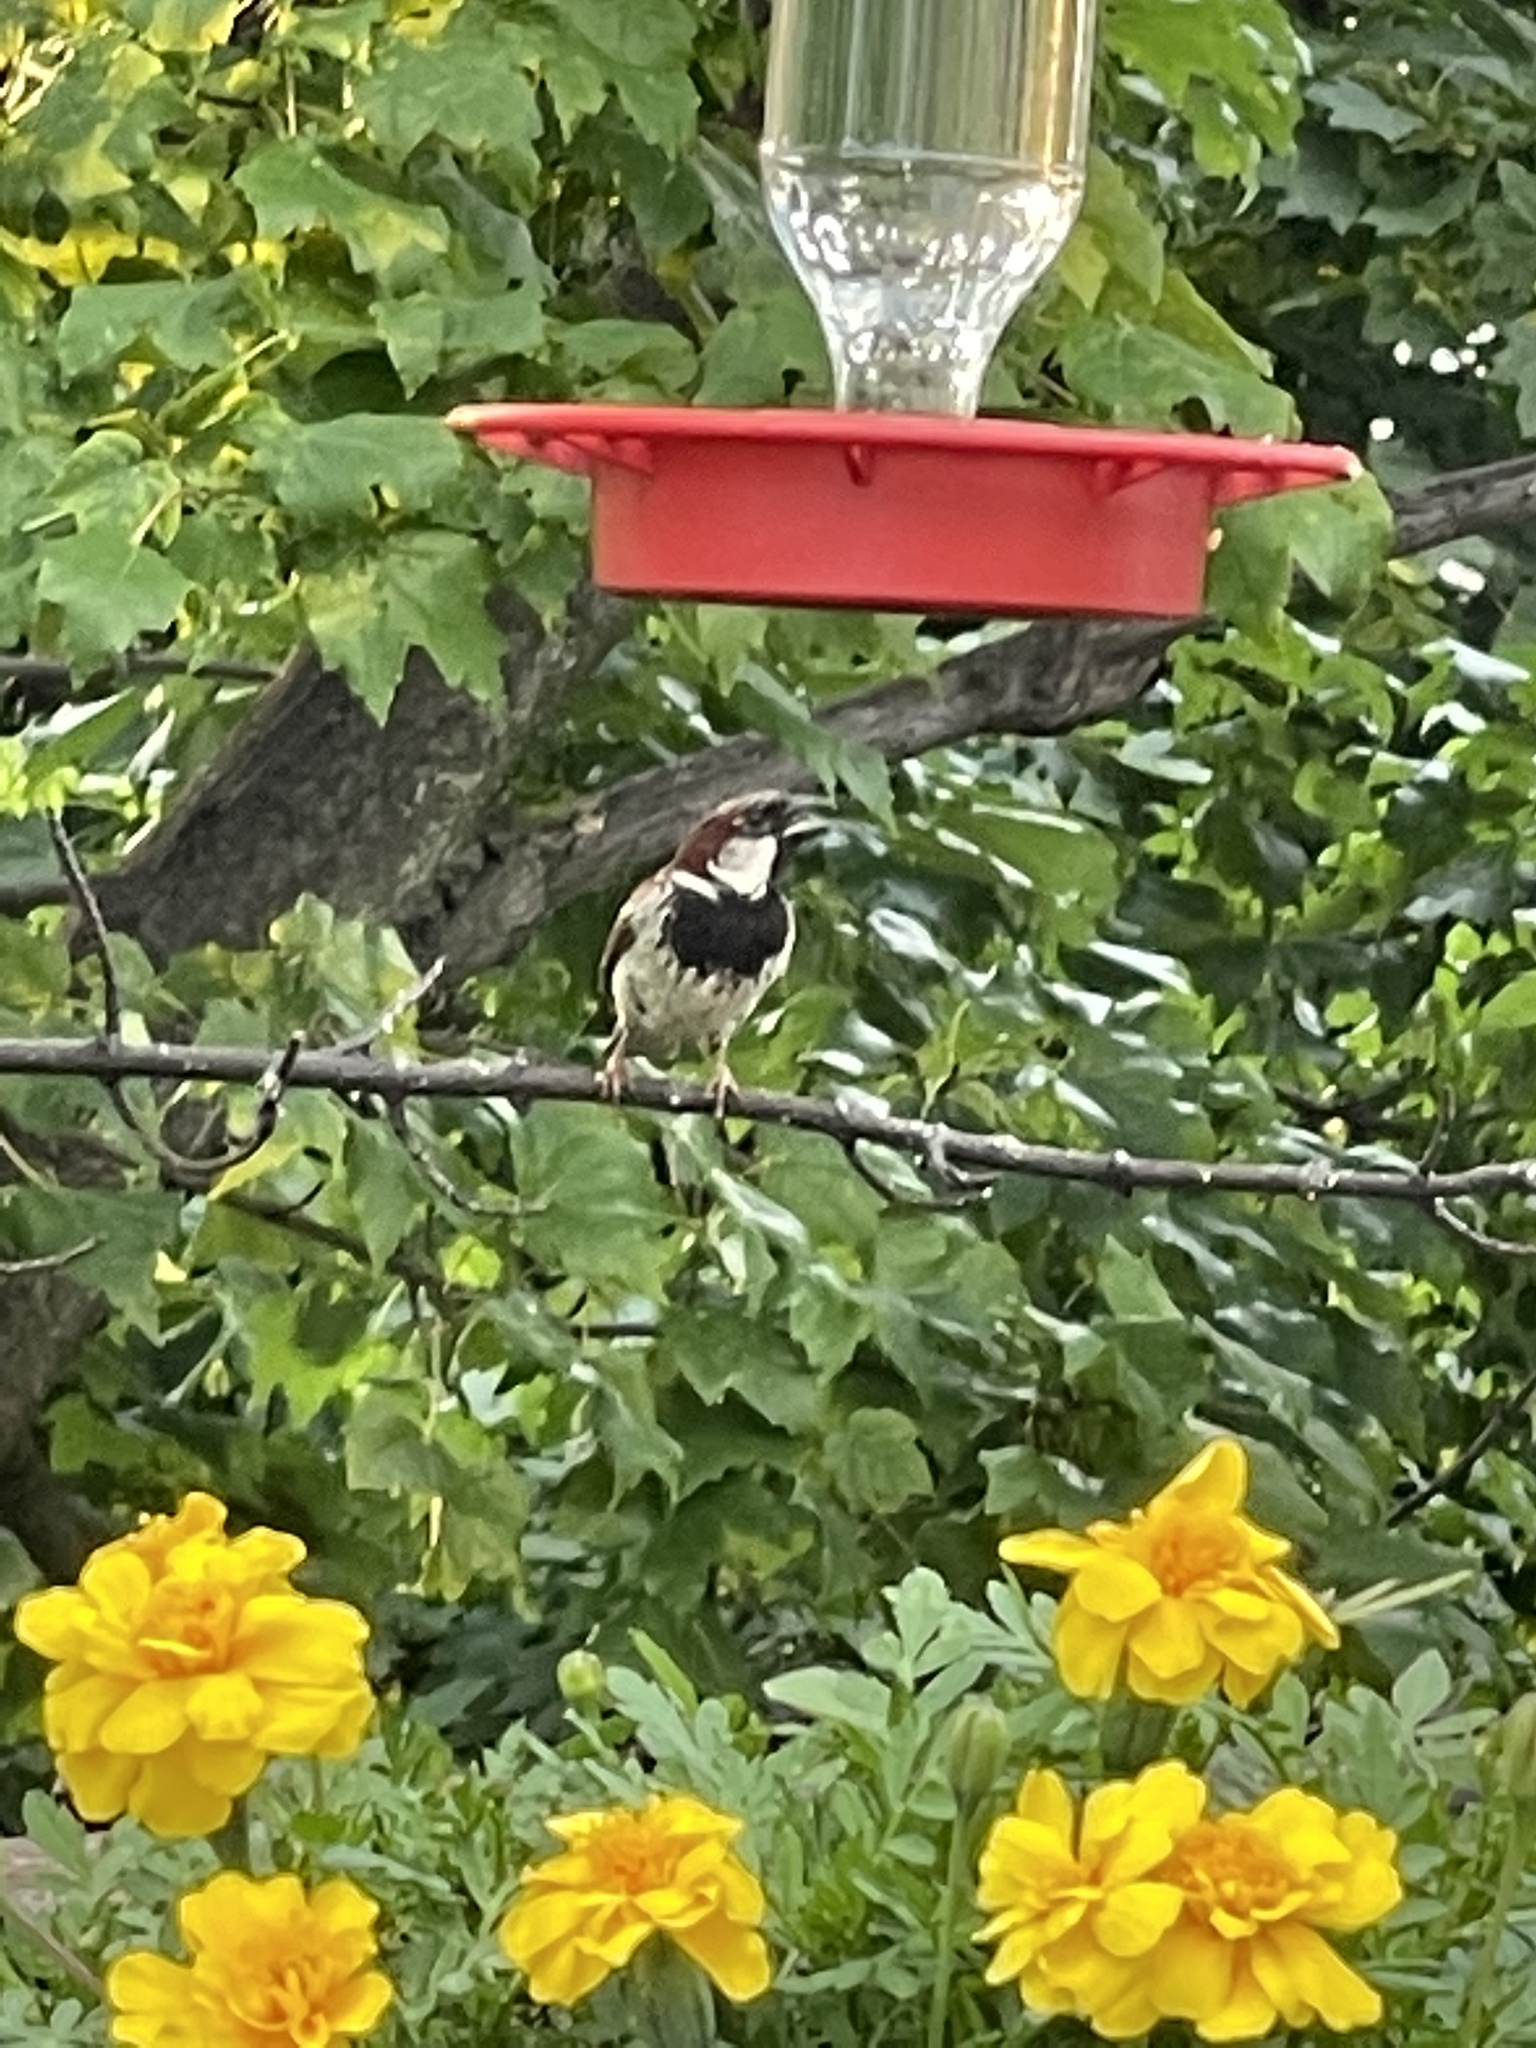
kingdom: Animalia
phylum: Chordata
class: Aves
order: Passeriformes
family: Passeridae
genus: Passer
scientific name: Passer domesticus
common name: House sparrow
